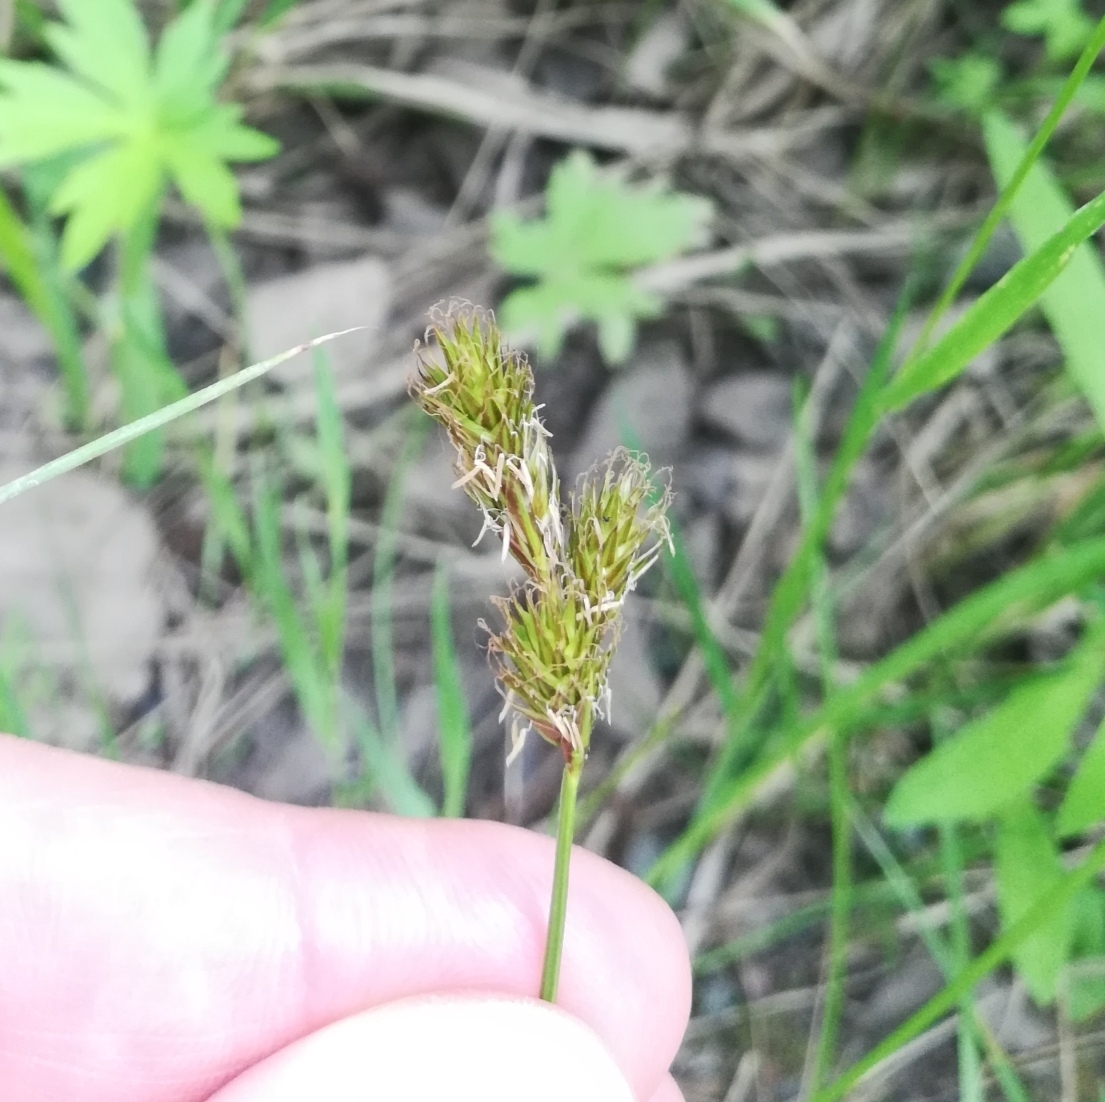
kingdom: Plantae
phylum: Tracheophyta
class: Liliopsida
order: Poales
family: Cyperaceae
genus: Carex
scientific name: Carex leporina
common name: Oval sedge
